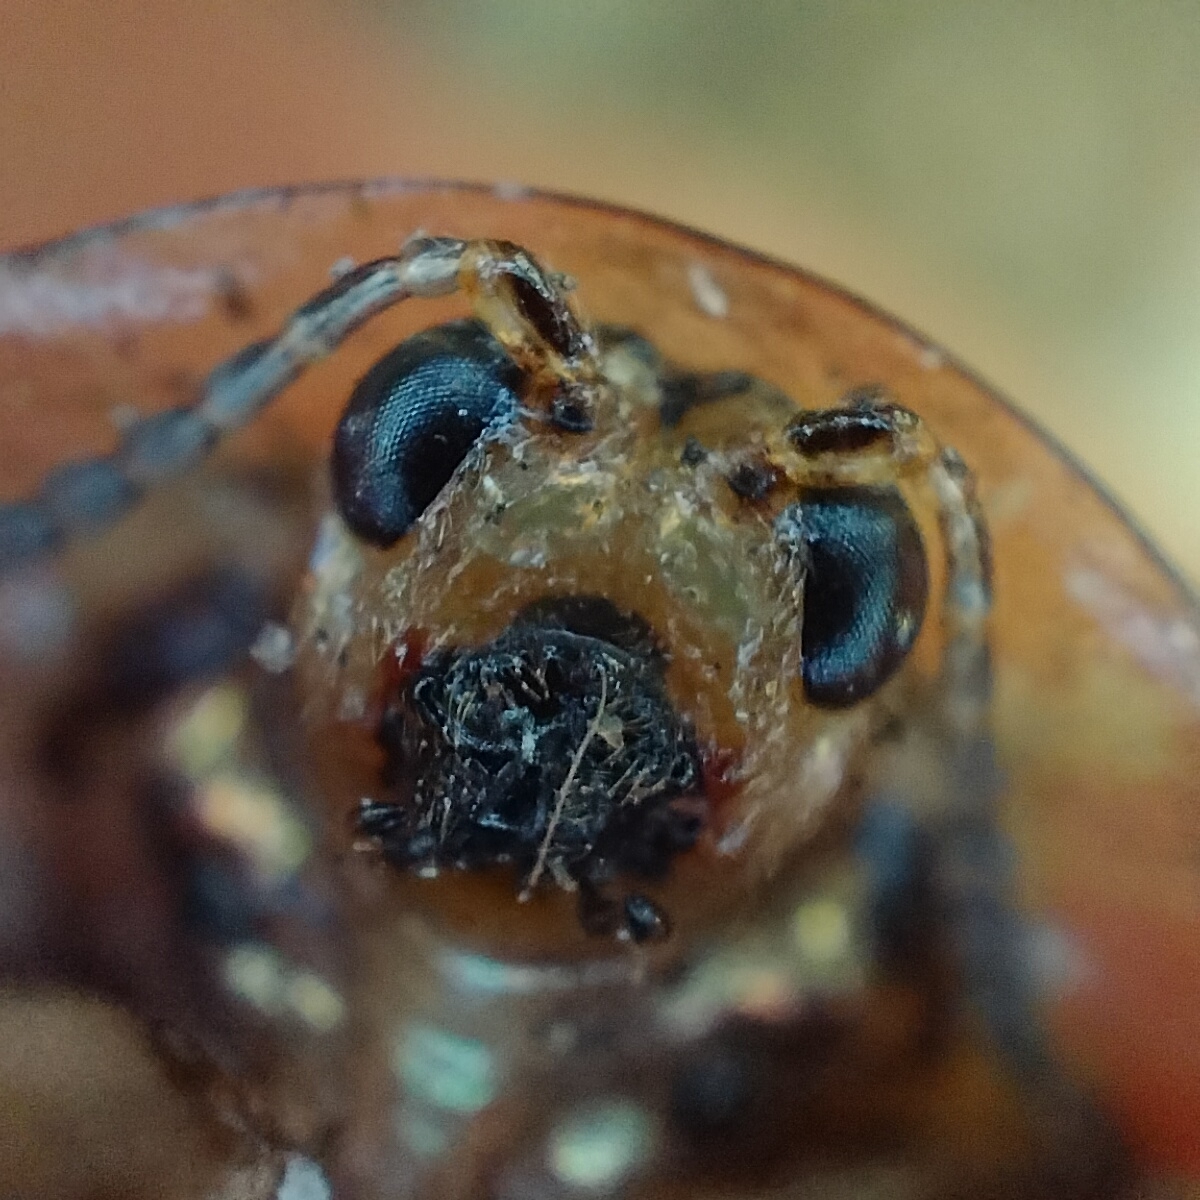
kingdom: Animalia
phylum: Arthropoda
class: Insecta
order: Coleoptera
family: Chrysomelidae
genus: Physonota
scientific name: Physonota stigmatilis
